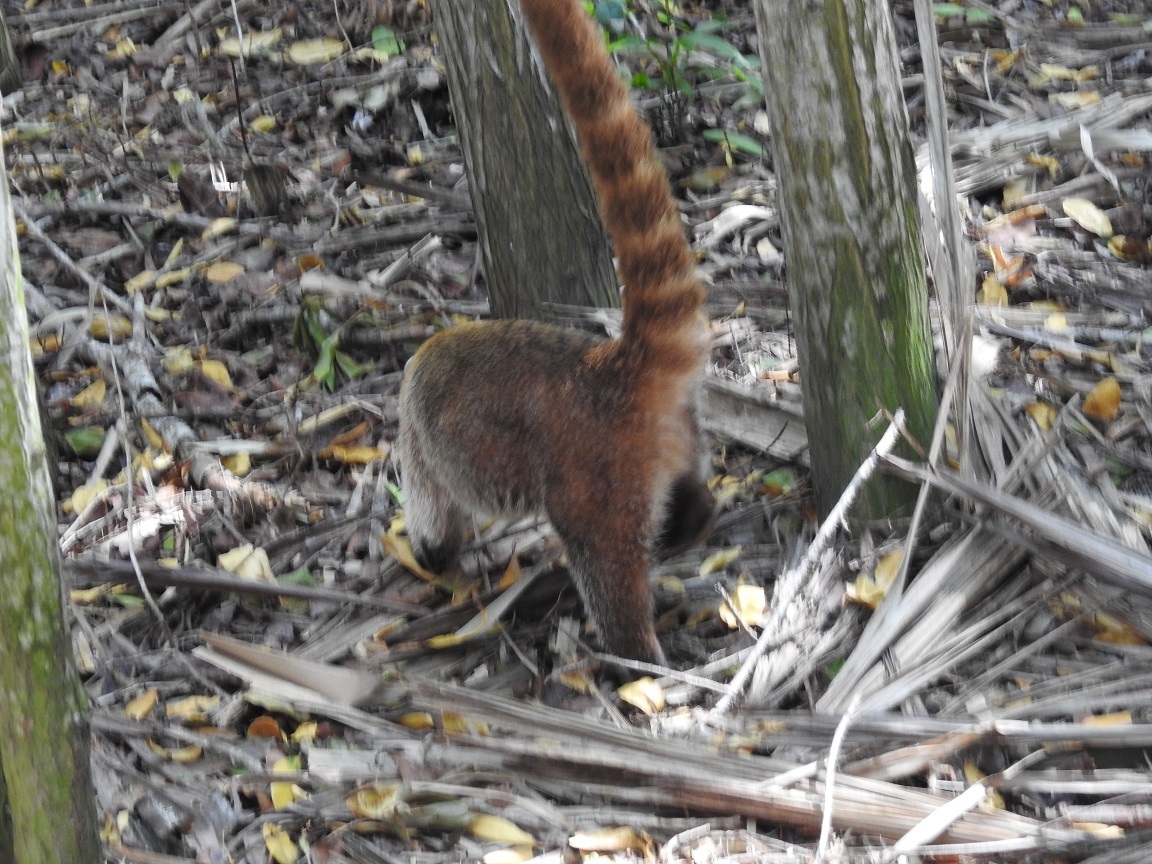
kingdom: Animalia
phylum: Chordata
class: Mammalia
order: Carnivora
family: Procyonidae
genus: Nasua
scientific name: Nasua narica
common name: White-nosed coati
